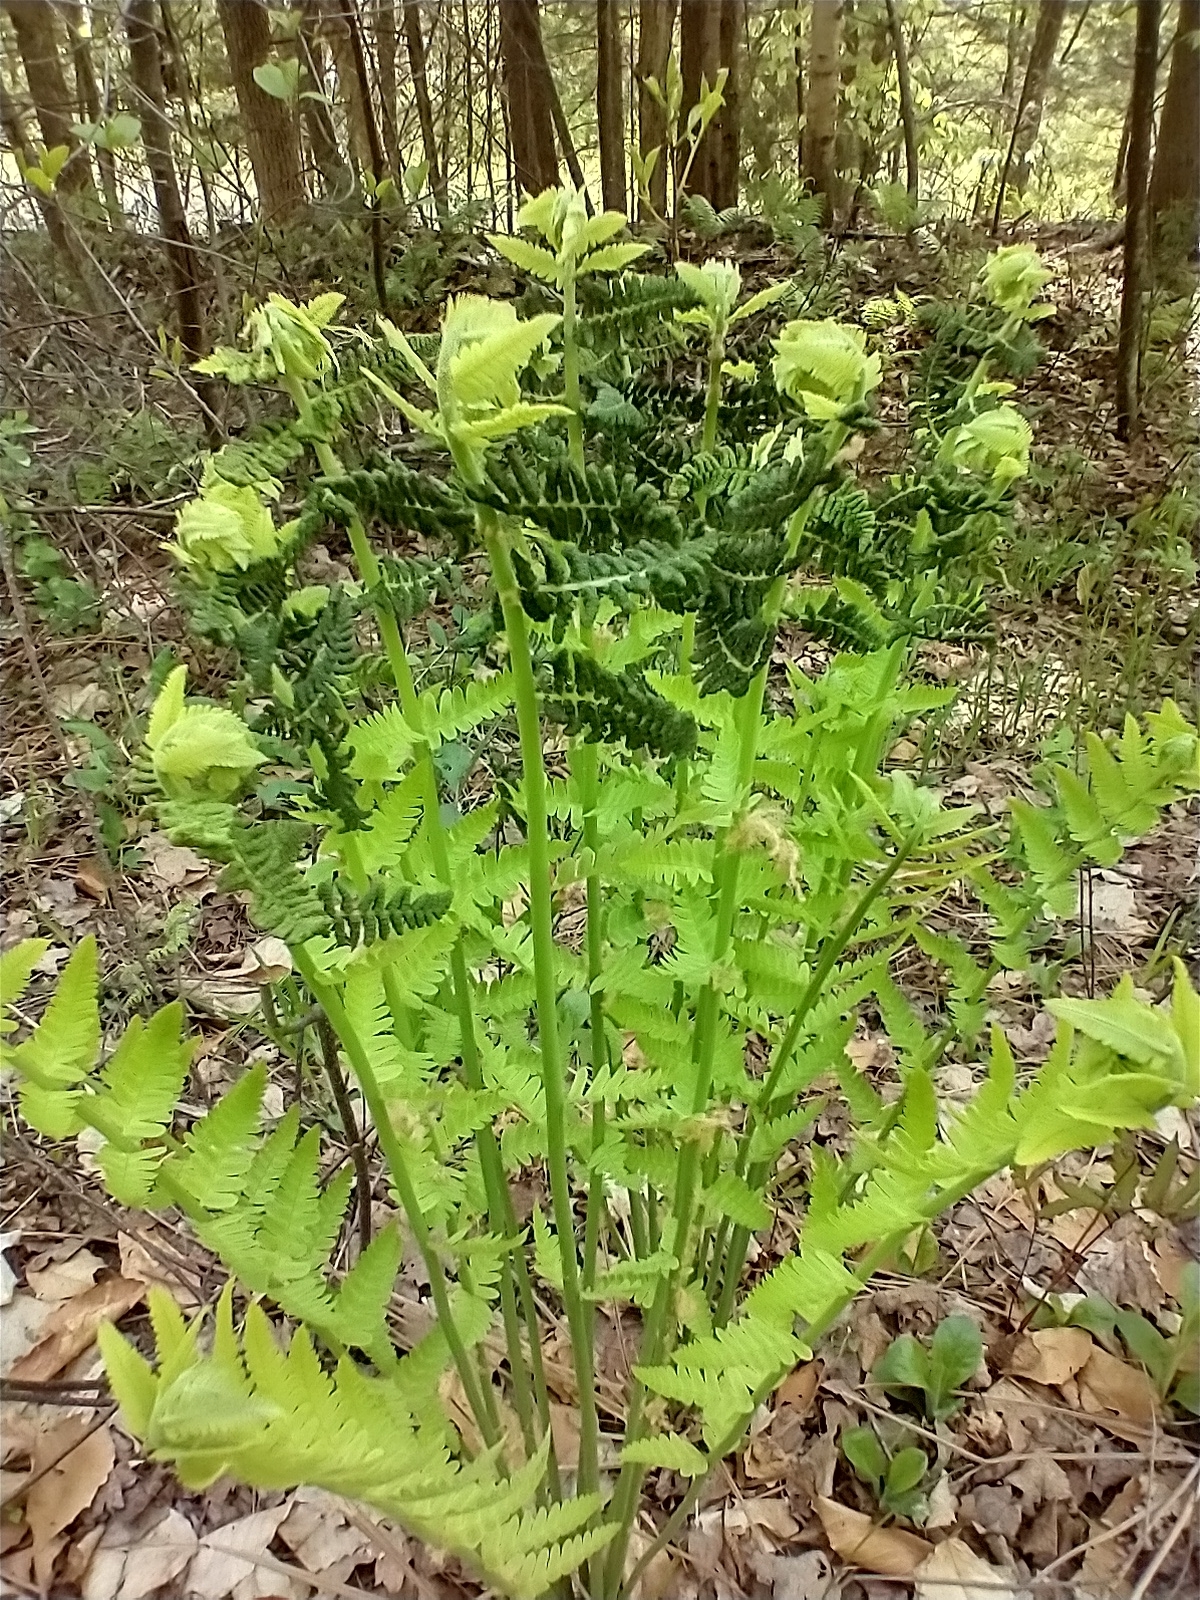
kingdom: Plantae
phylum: Tracheophyta
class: Polypodiopsida
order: Osmundales
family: Osmundaceae
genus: Claytosmunda
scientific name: Claytosmunda claytoniana
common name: Clayton's fern
